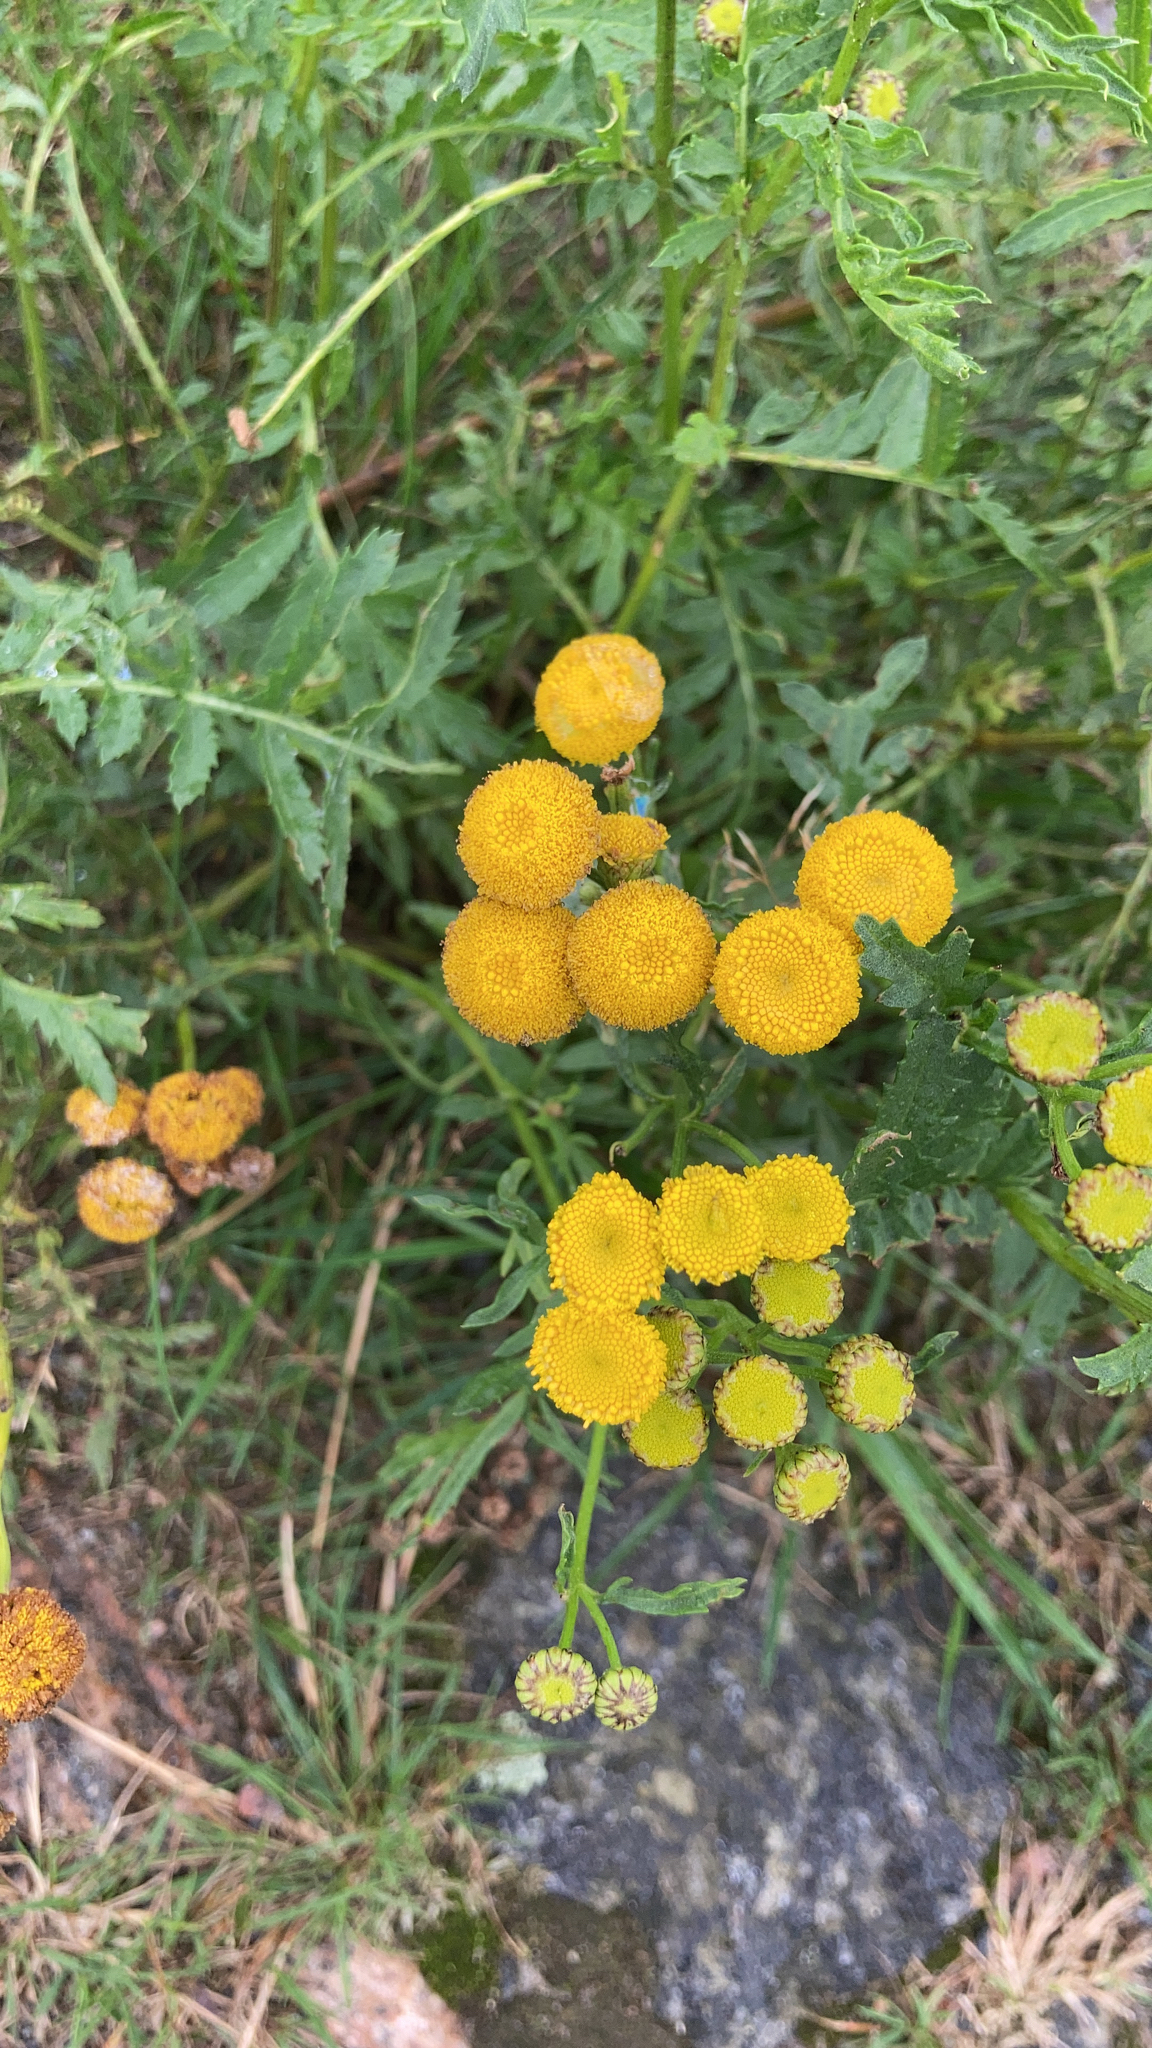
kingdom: Plantae
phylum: Tracheophyta
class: Magnoliopsida
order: Asterales
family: Asteraceae
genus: Tanacetum
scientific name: Tanacetum vulgare
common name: Common tansy
